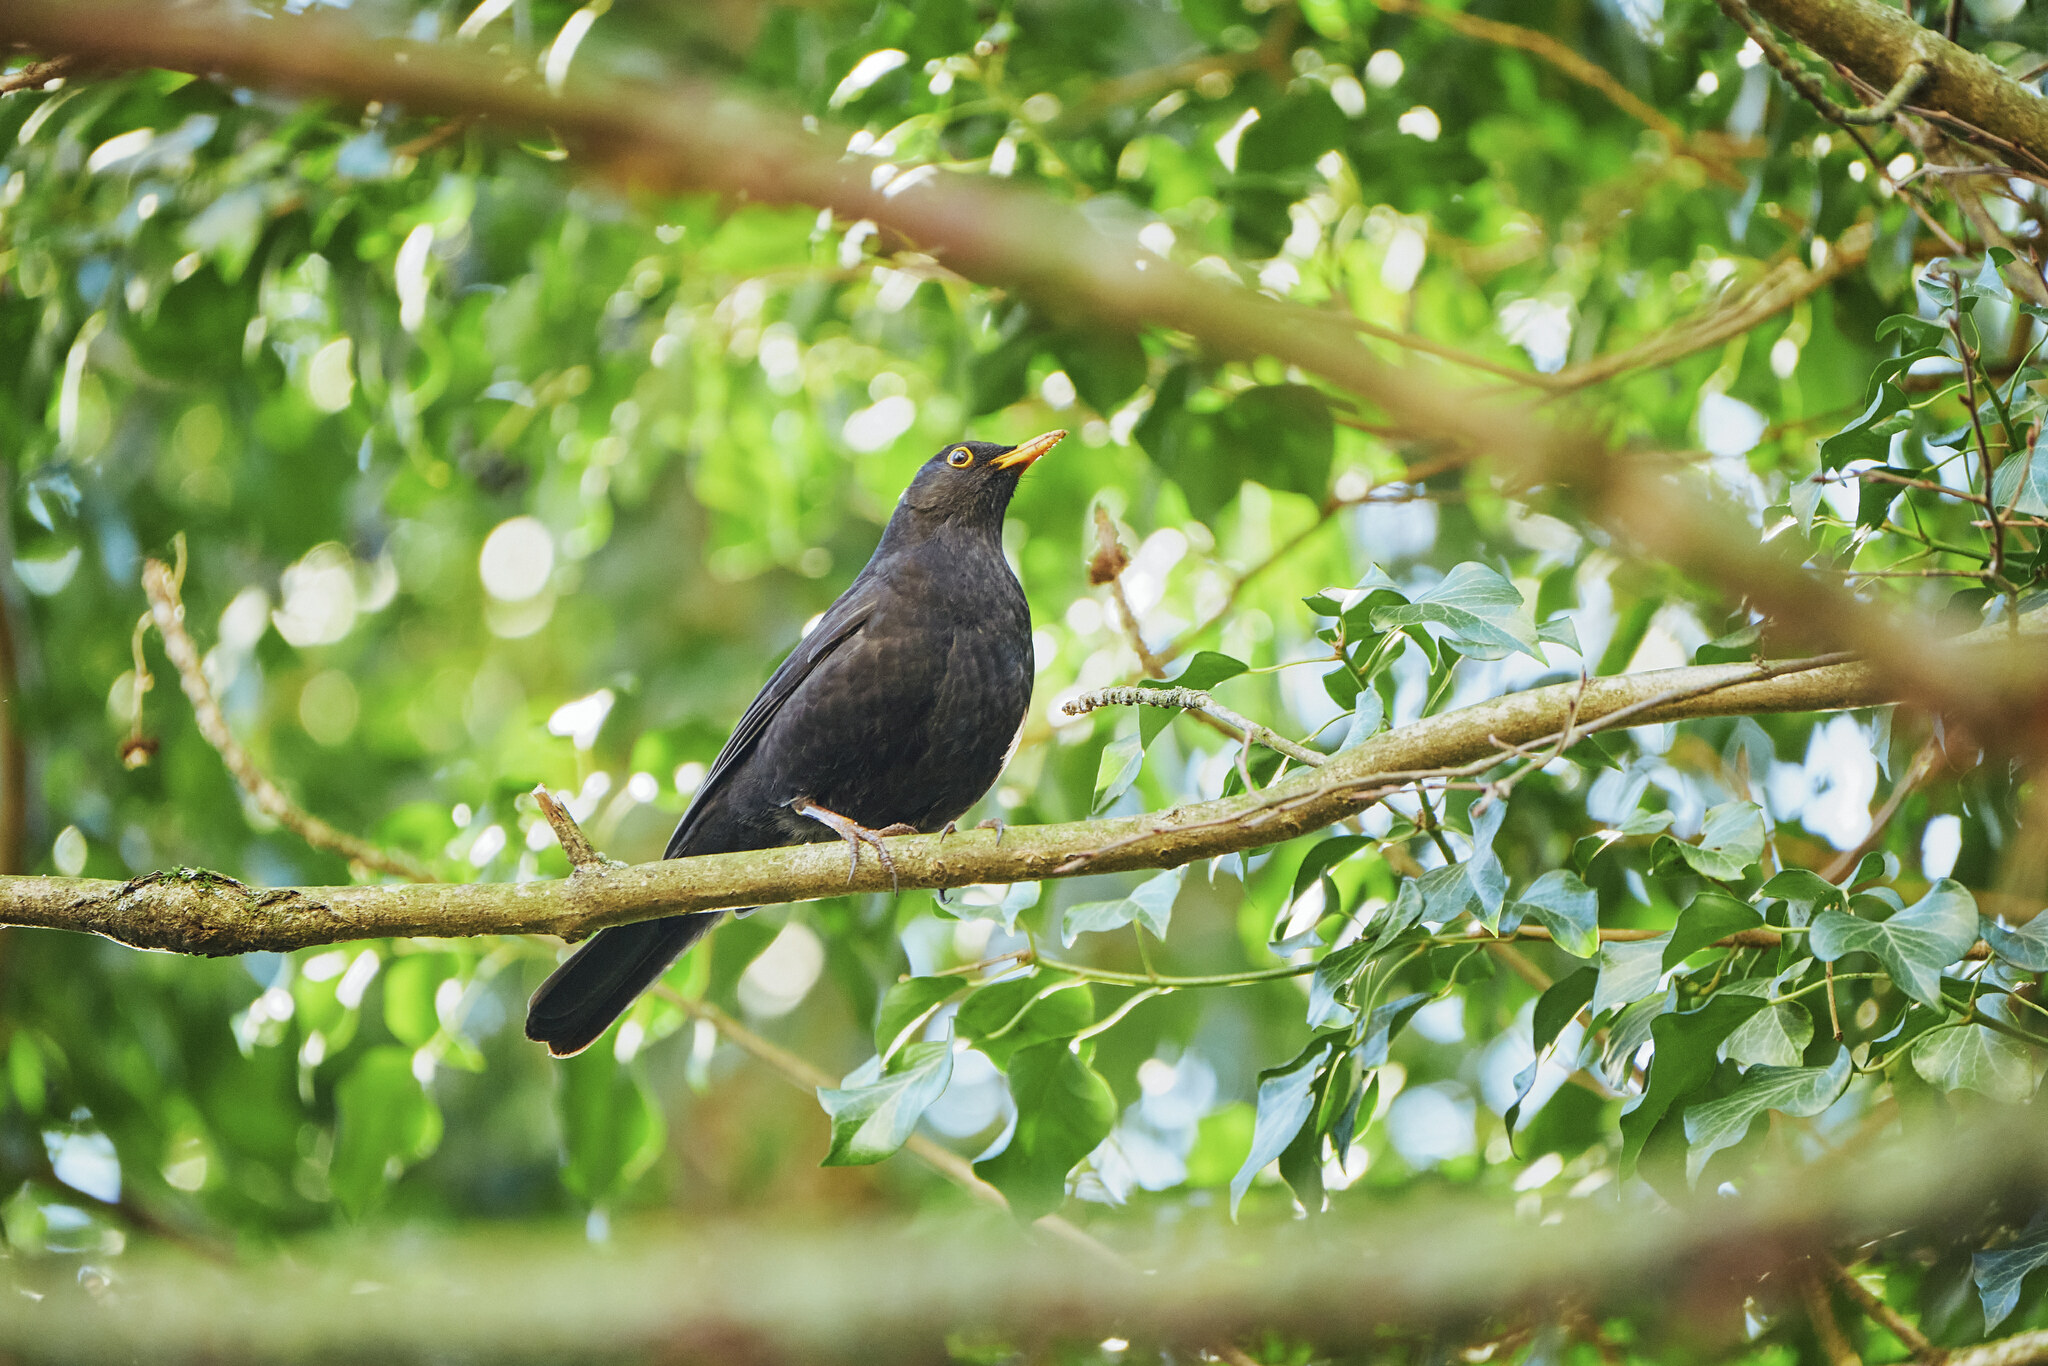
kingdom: Animalia
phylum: Chordata
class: Aves
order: Passeriformes
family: Turdidae
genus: Turdus
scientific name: Turdus merula
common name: Common blackbird
